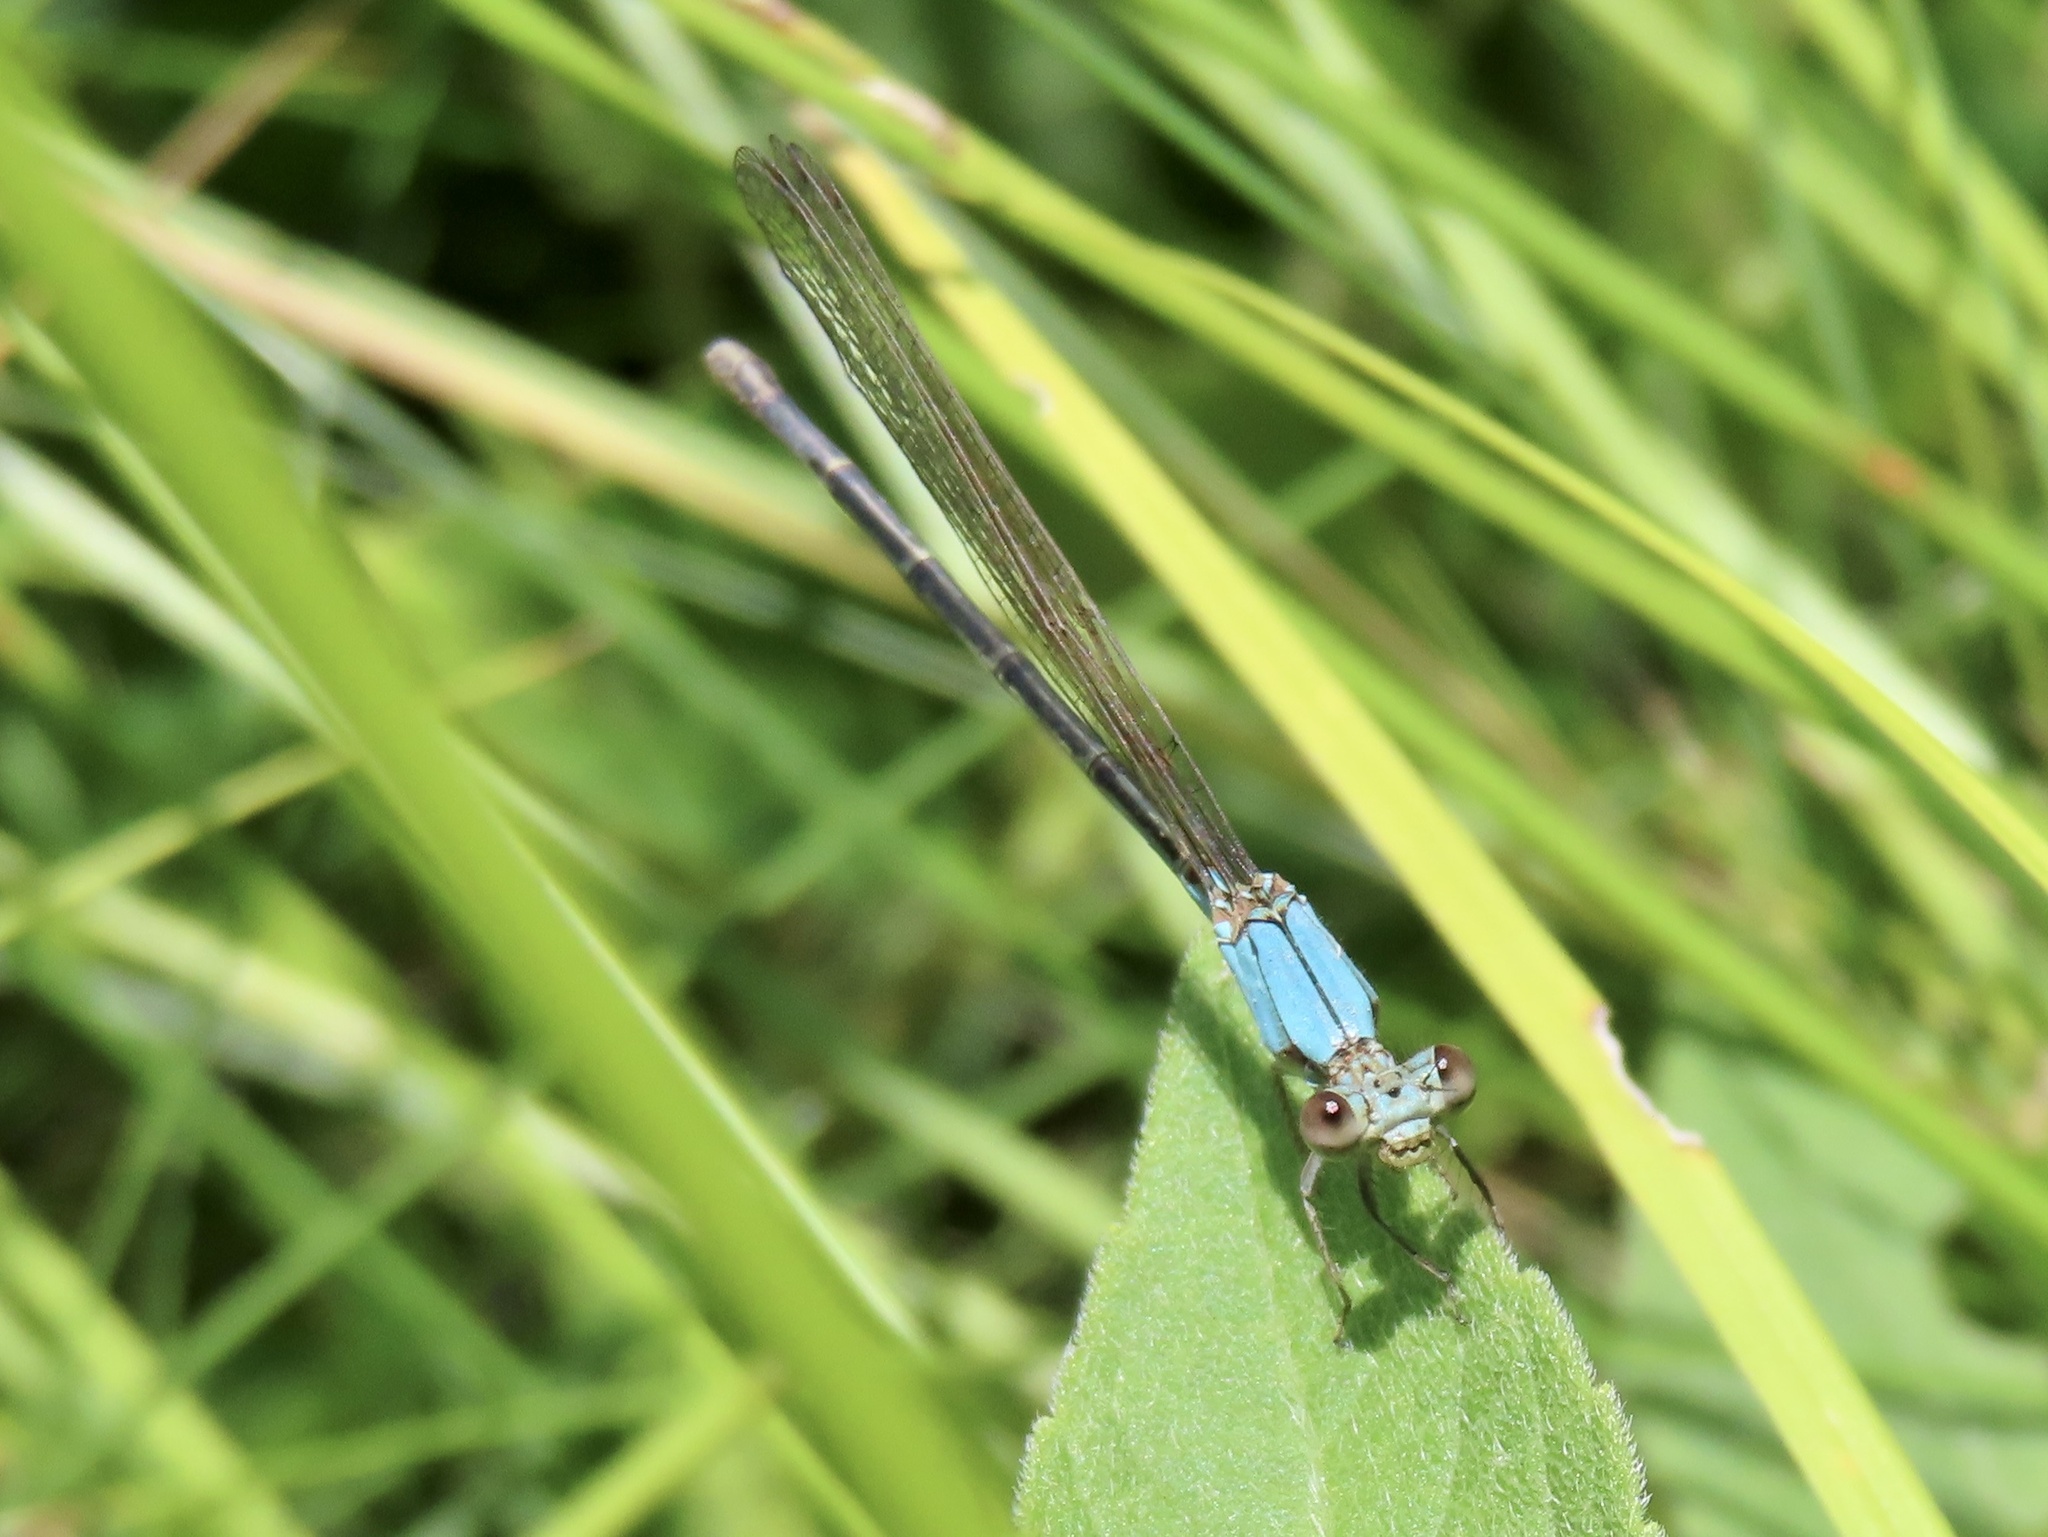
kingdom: Animalia
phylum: Arthropoda
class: Insecta
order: Odonata
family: Coenagrionidae
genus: Argia
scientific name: Argia apicalis
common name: Blue-fronted dancer
